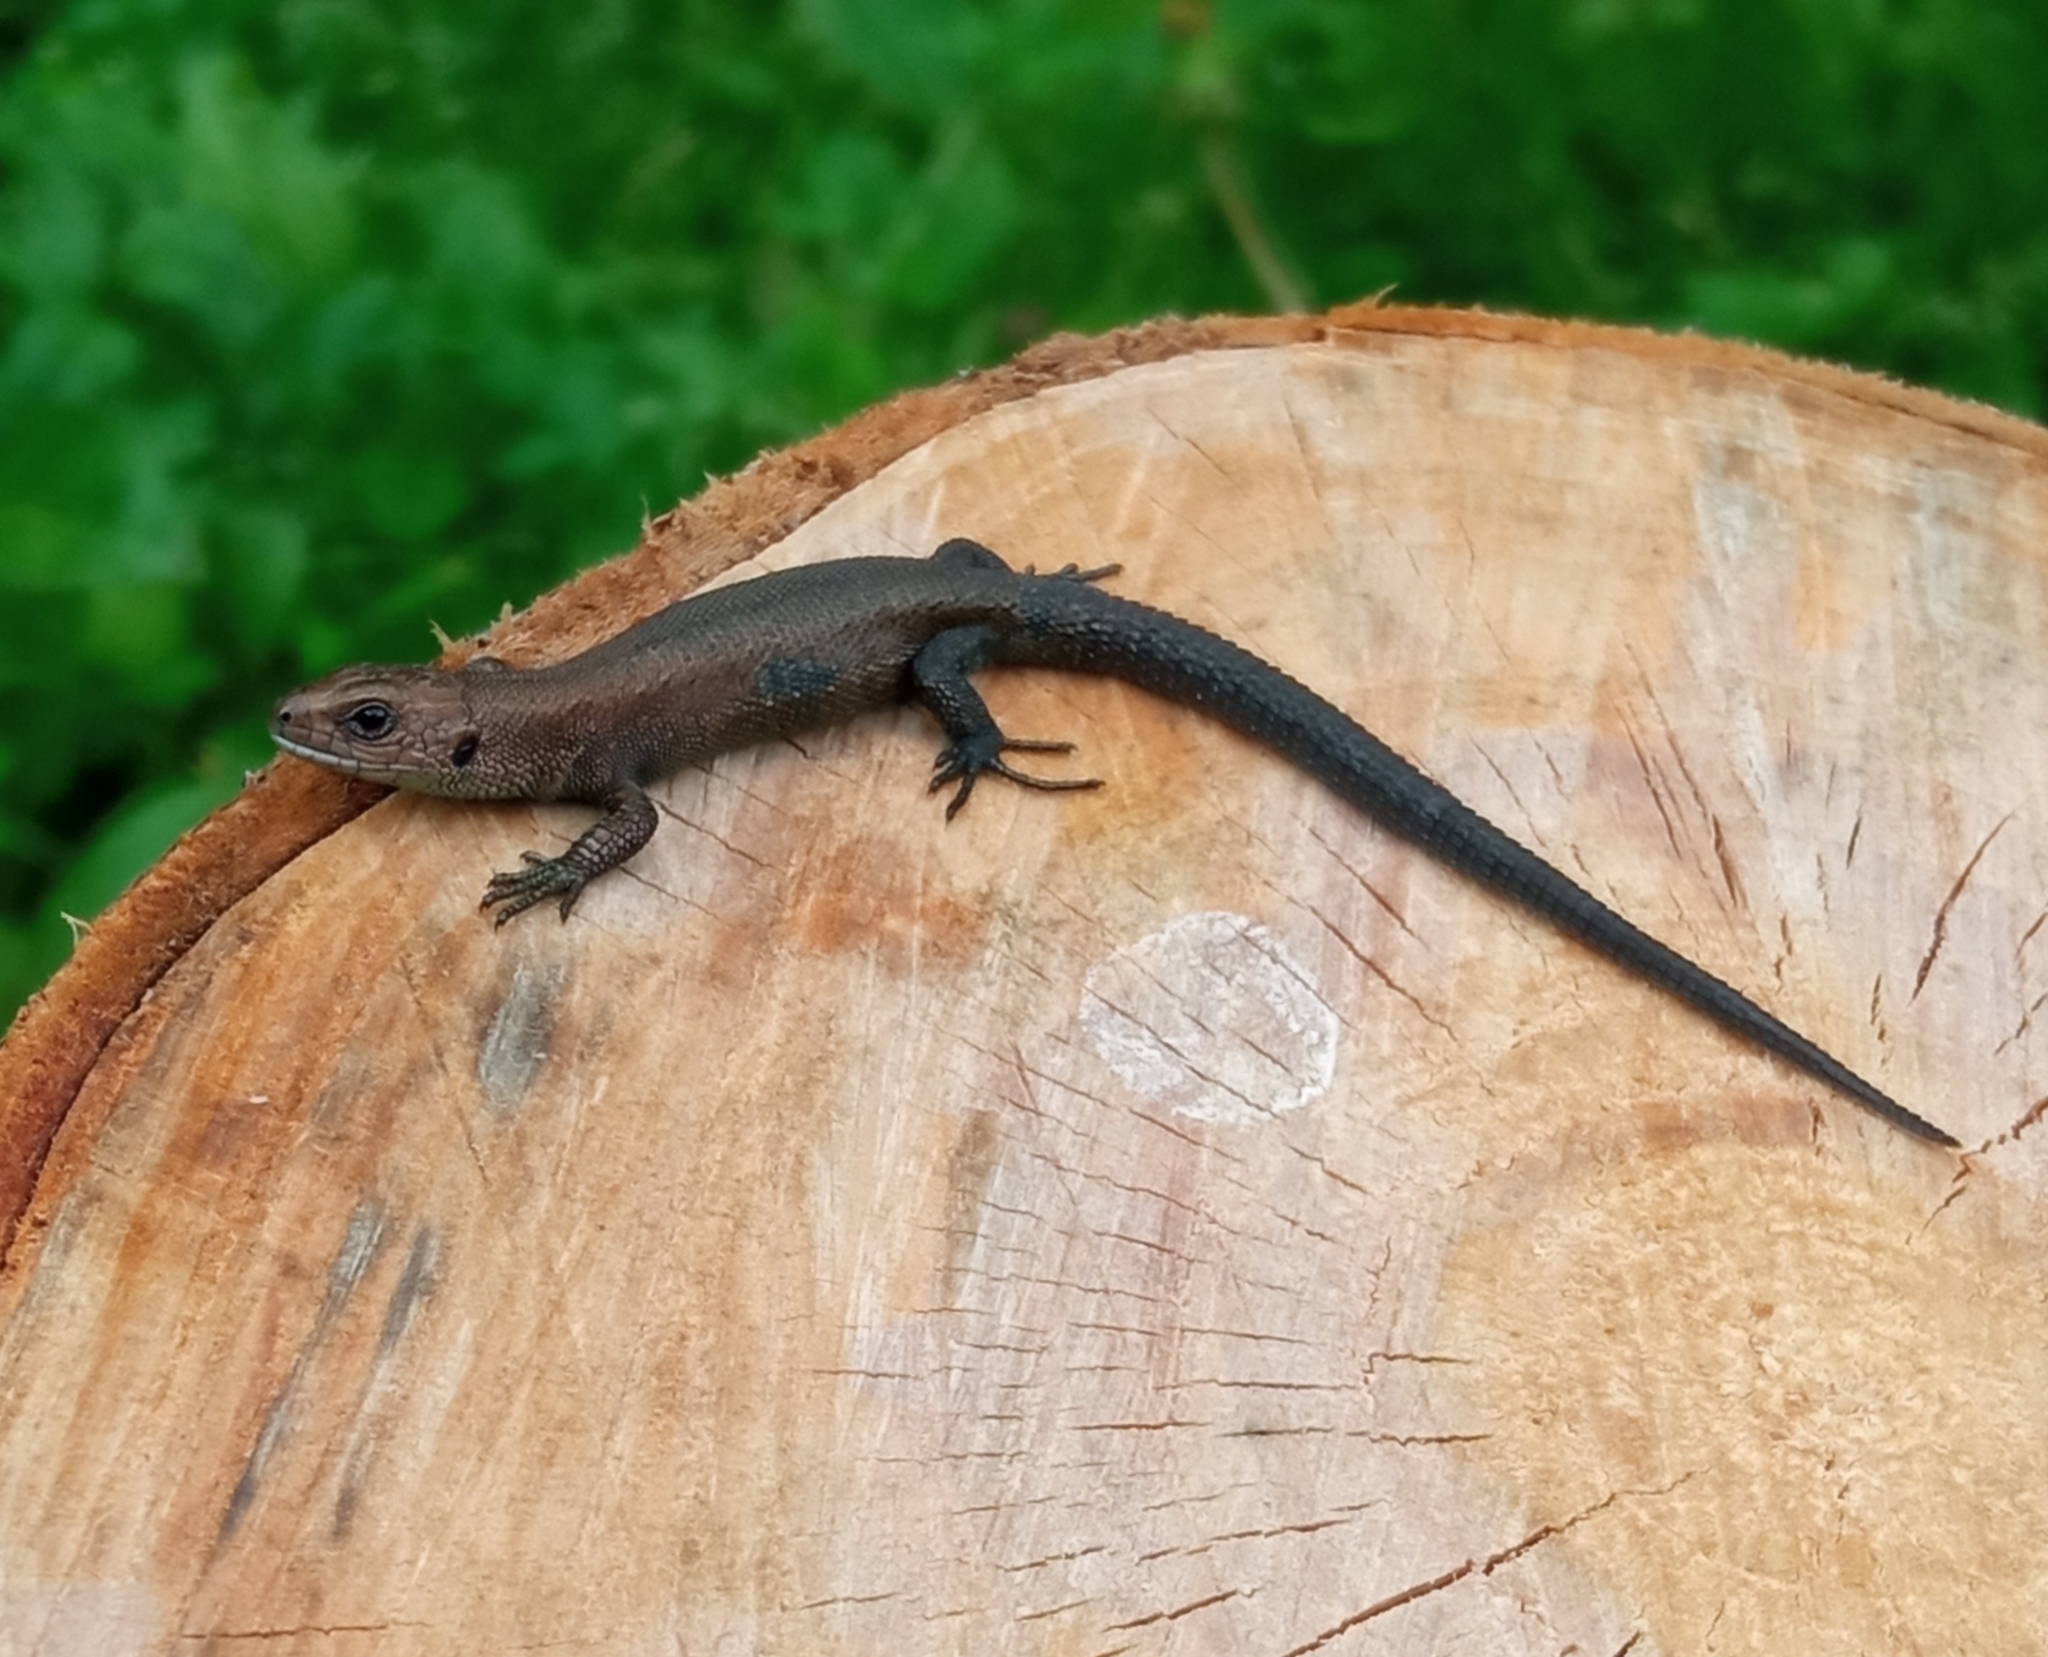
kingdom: Animalia
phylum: Chordata
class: Squamata
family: Lacertidae
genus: Zootoca
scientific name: Zootoca vivipara
